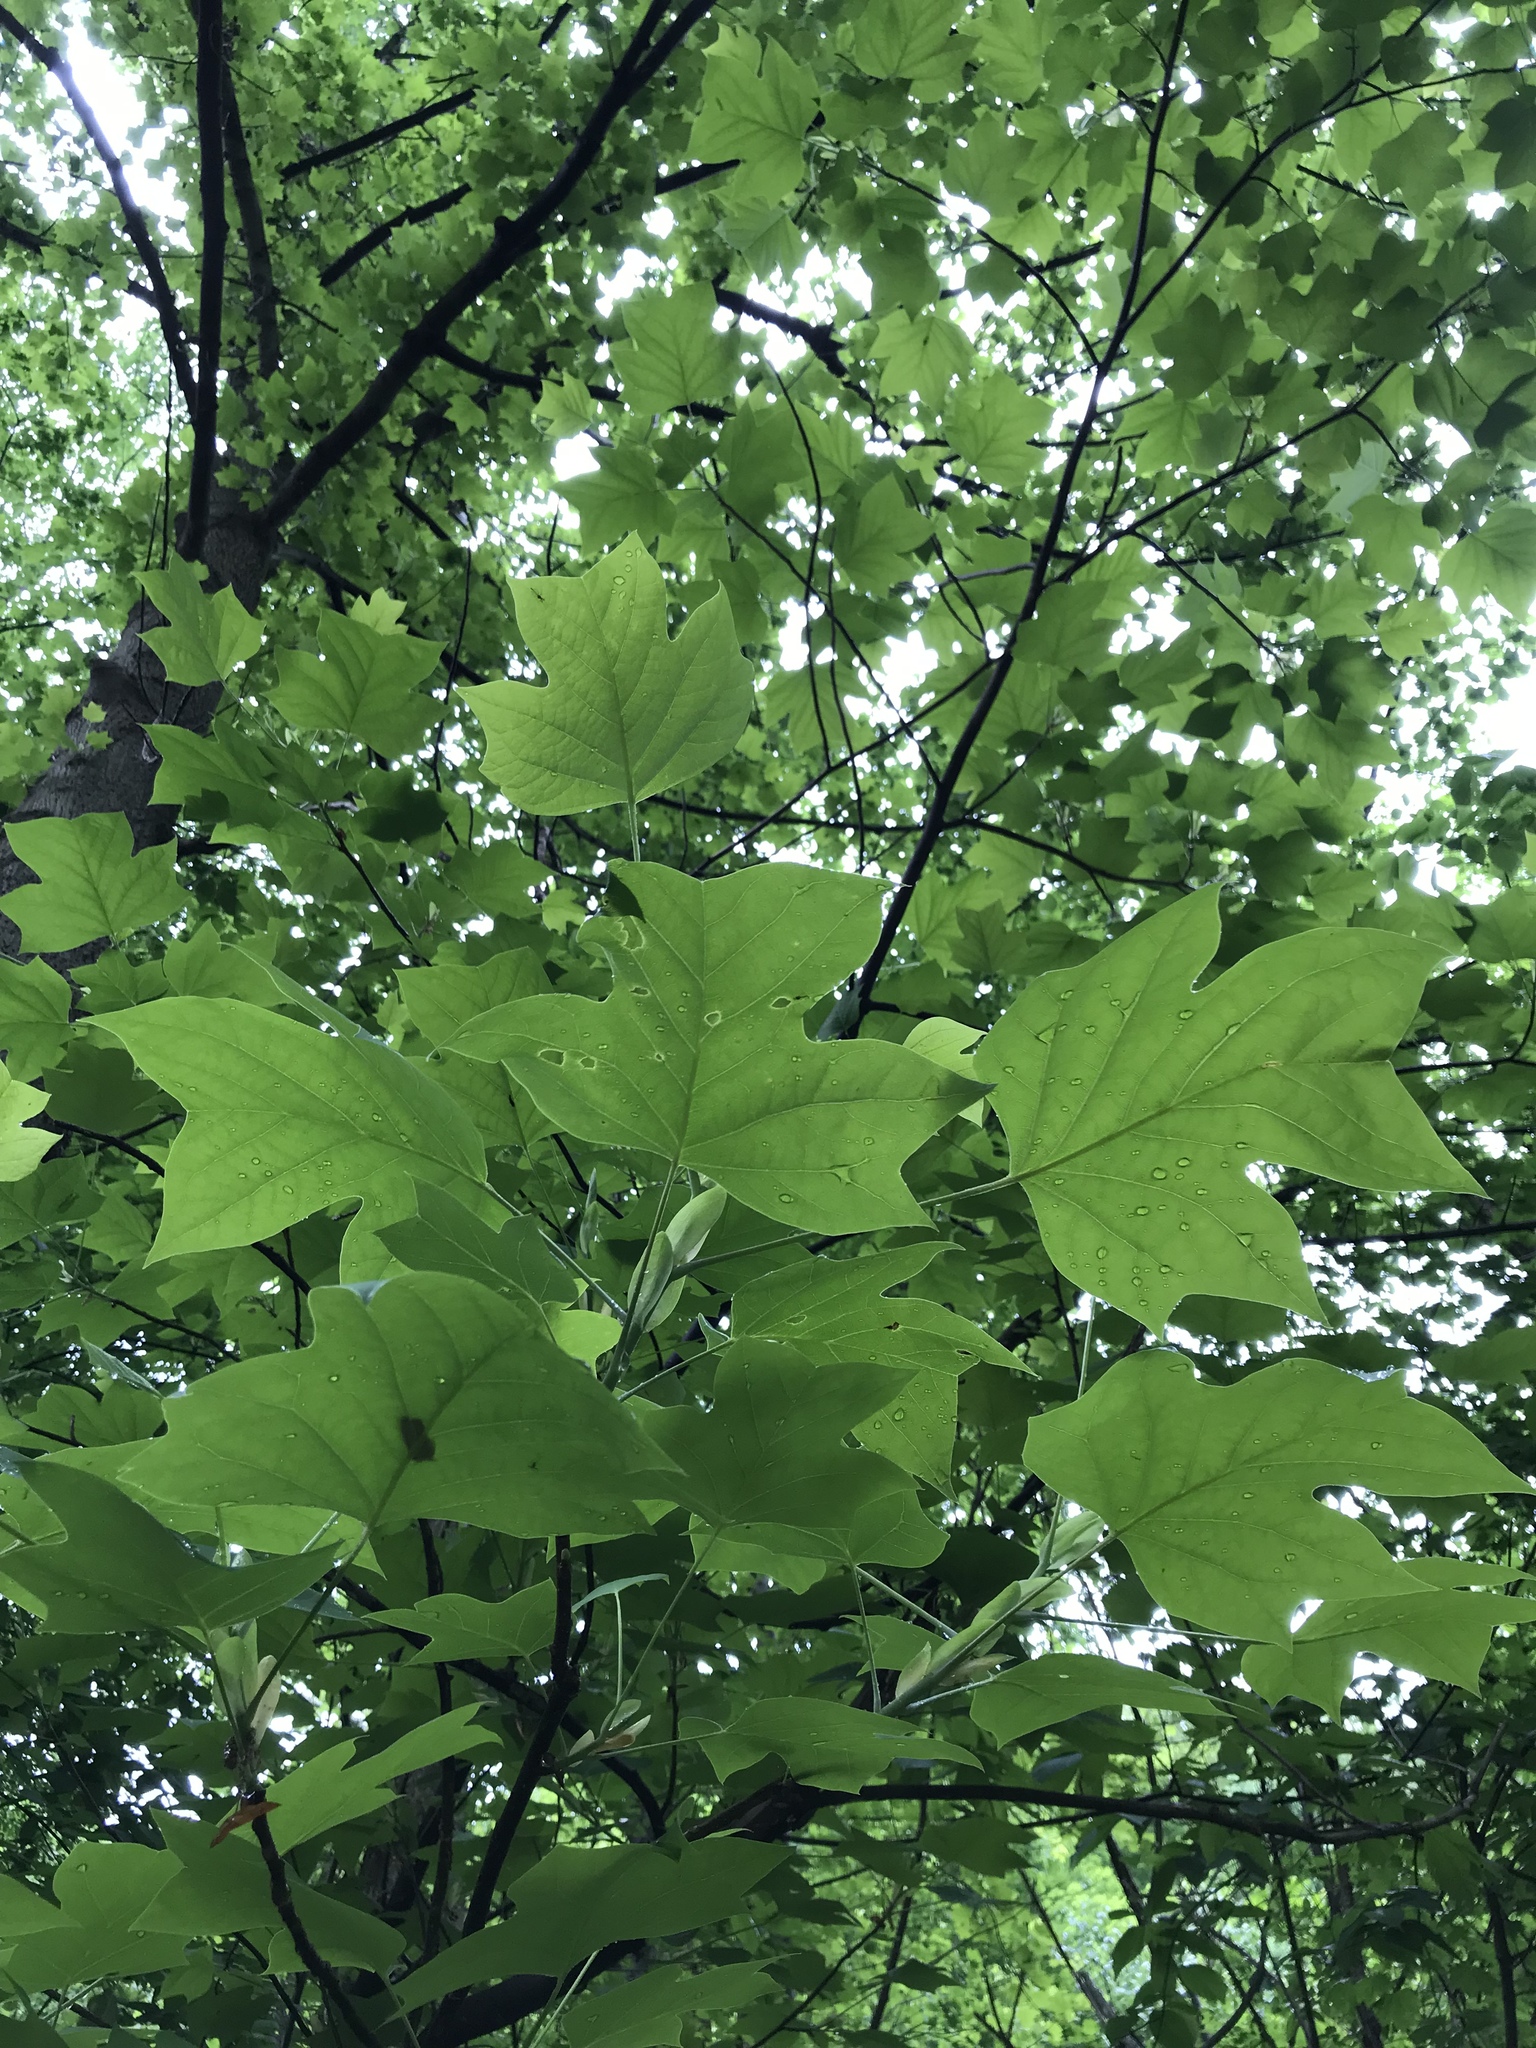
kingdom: Plantae
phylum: Tracheophyta
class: Magnoliopsida
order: Magnoliales
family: Magnoliaceae
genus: Liriodendron
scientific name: Liriodendron tulipifera
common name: Tulip tree
